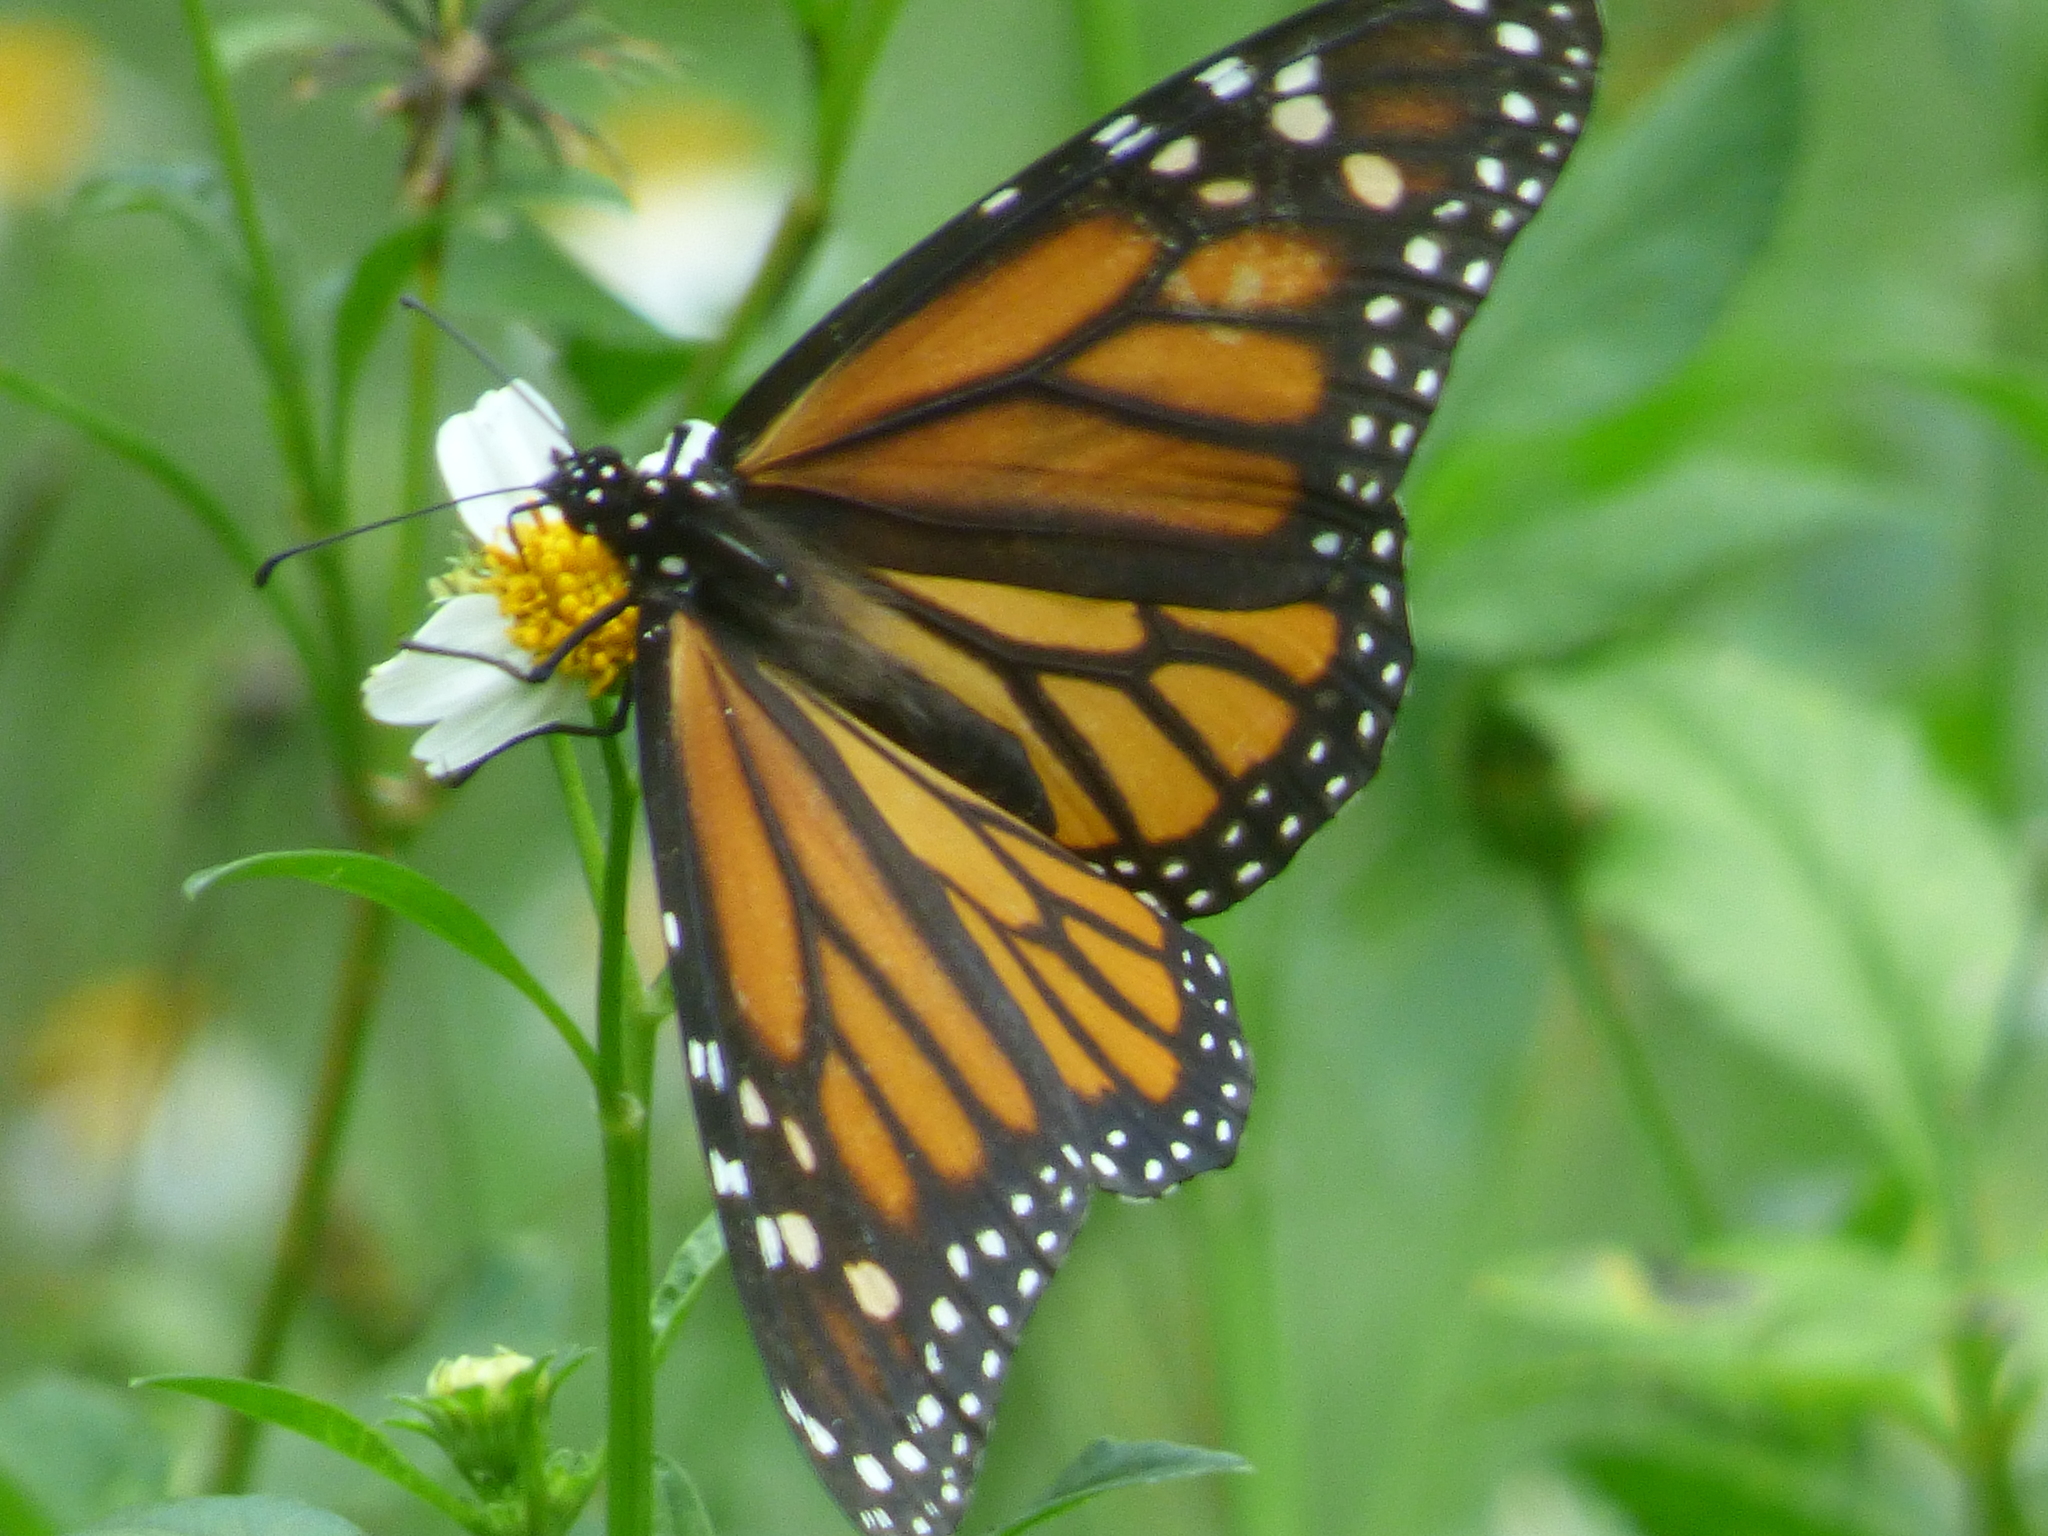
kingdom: Animalia
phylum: Arthropoda
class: Insecta
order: Lepidoptera
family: Nymphalidae
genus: Danaus
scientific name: Danaus plexippus
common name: Monarch
